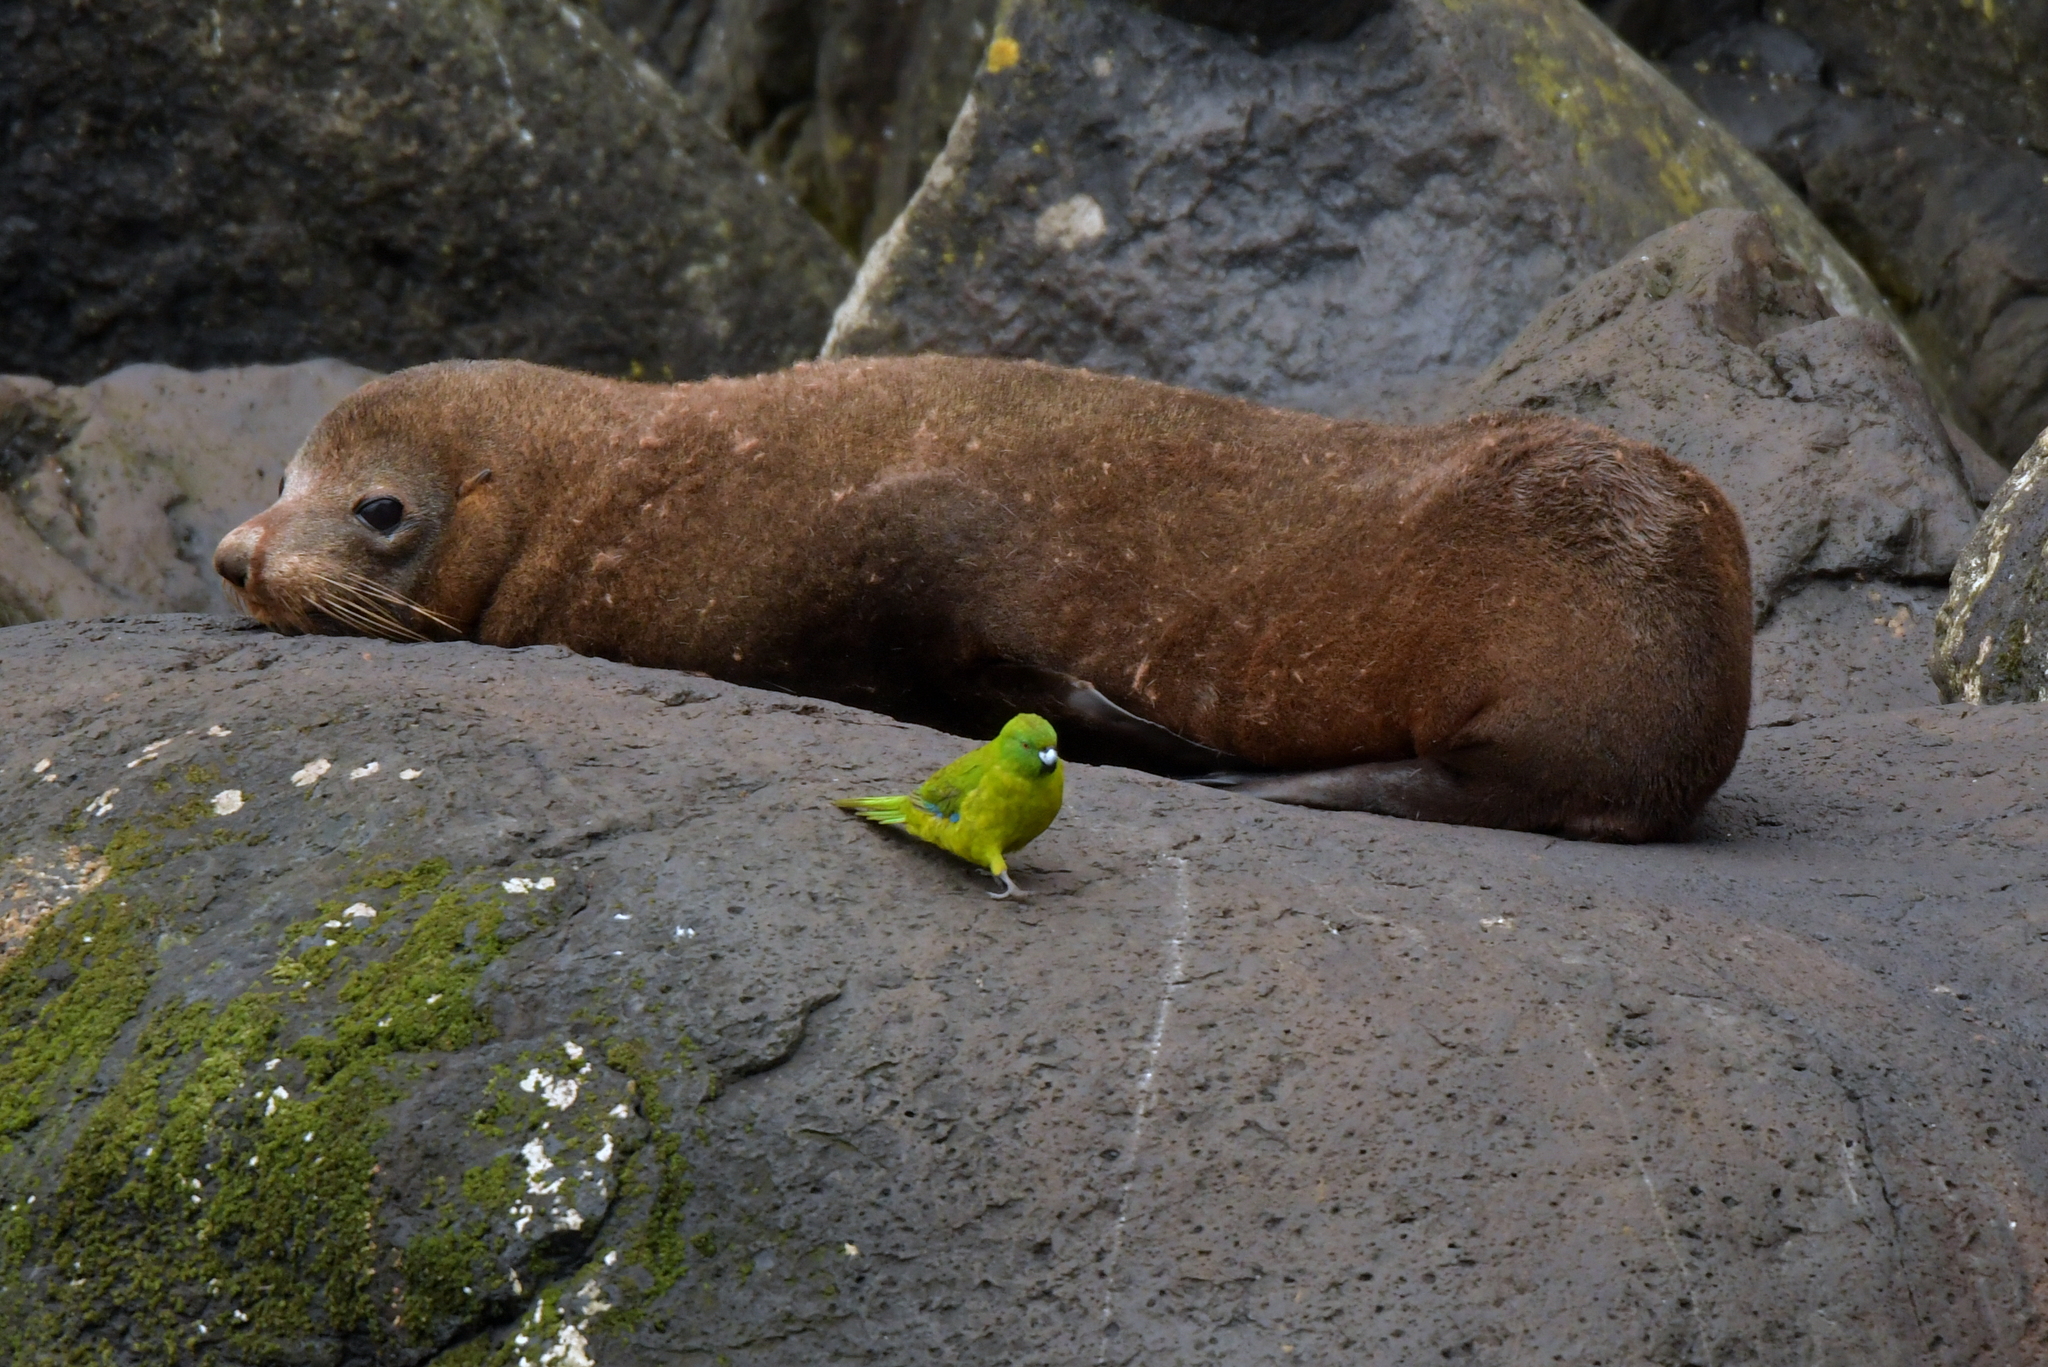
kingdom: Animalia
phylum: Chordata
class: Aves
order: Psittaciformes
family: Psittacidae
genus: Cyanoramphus
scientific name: Cyanoramphus unicolor
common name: Antipodes parakeet
